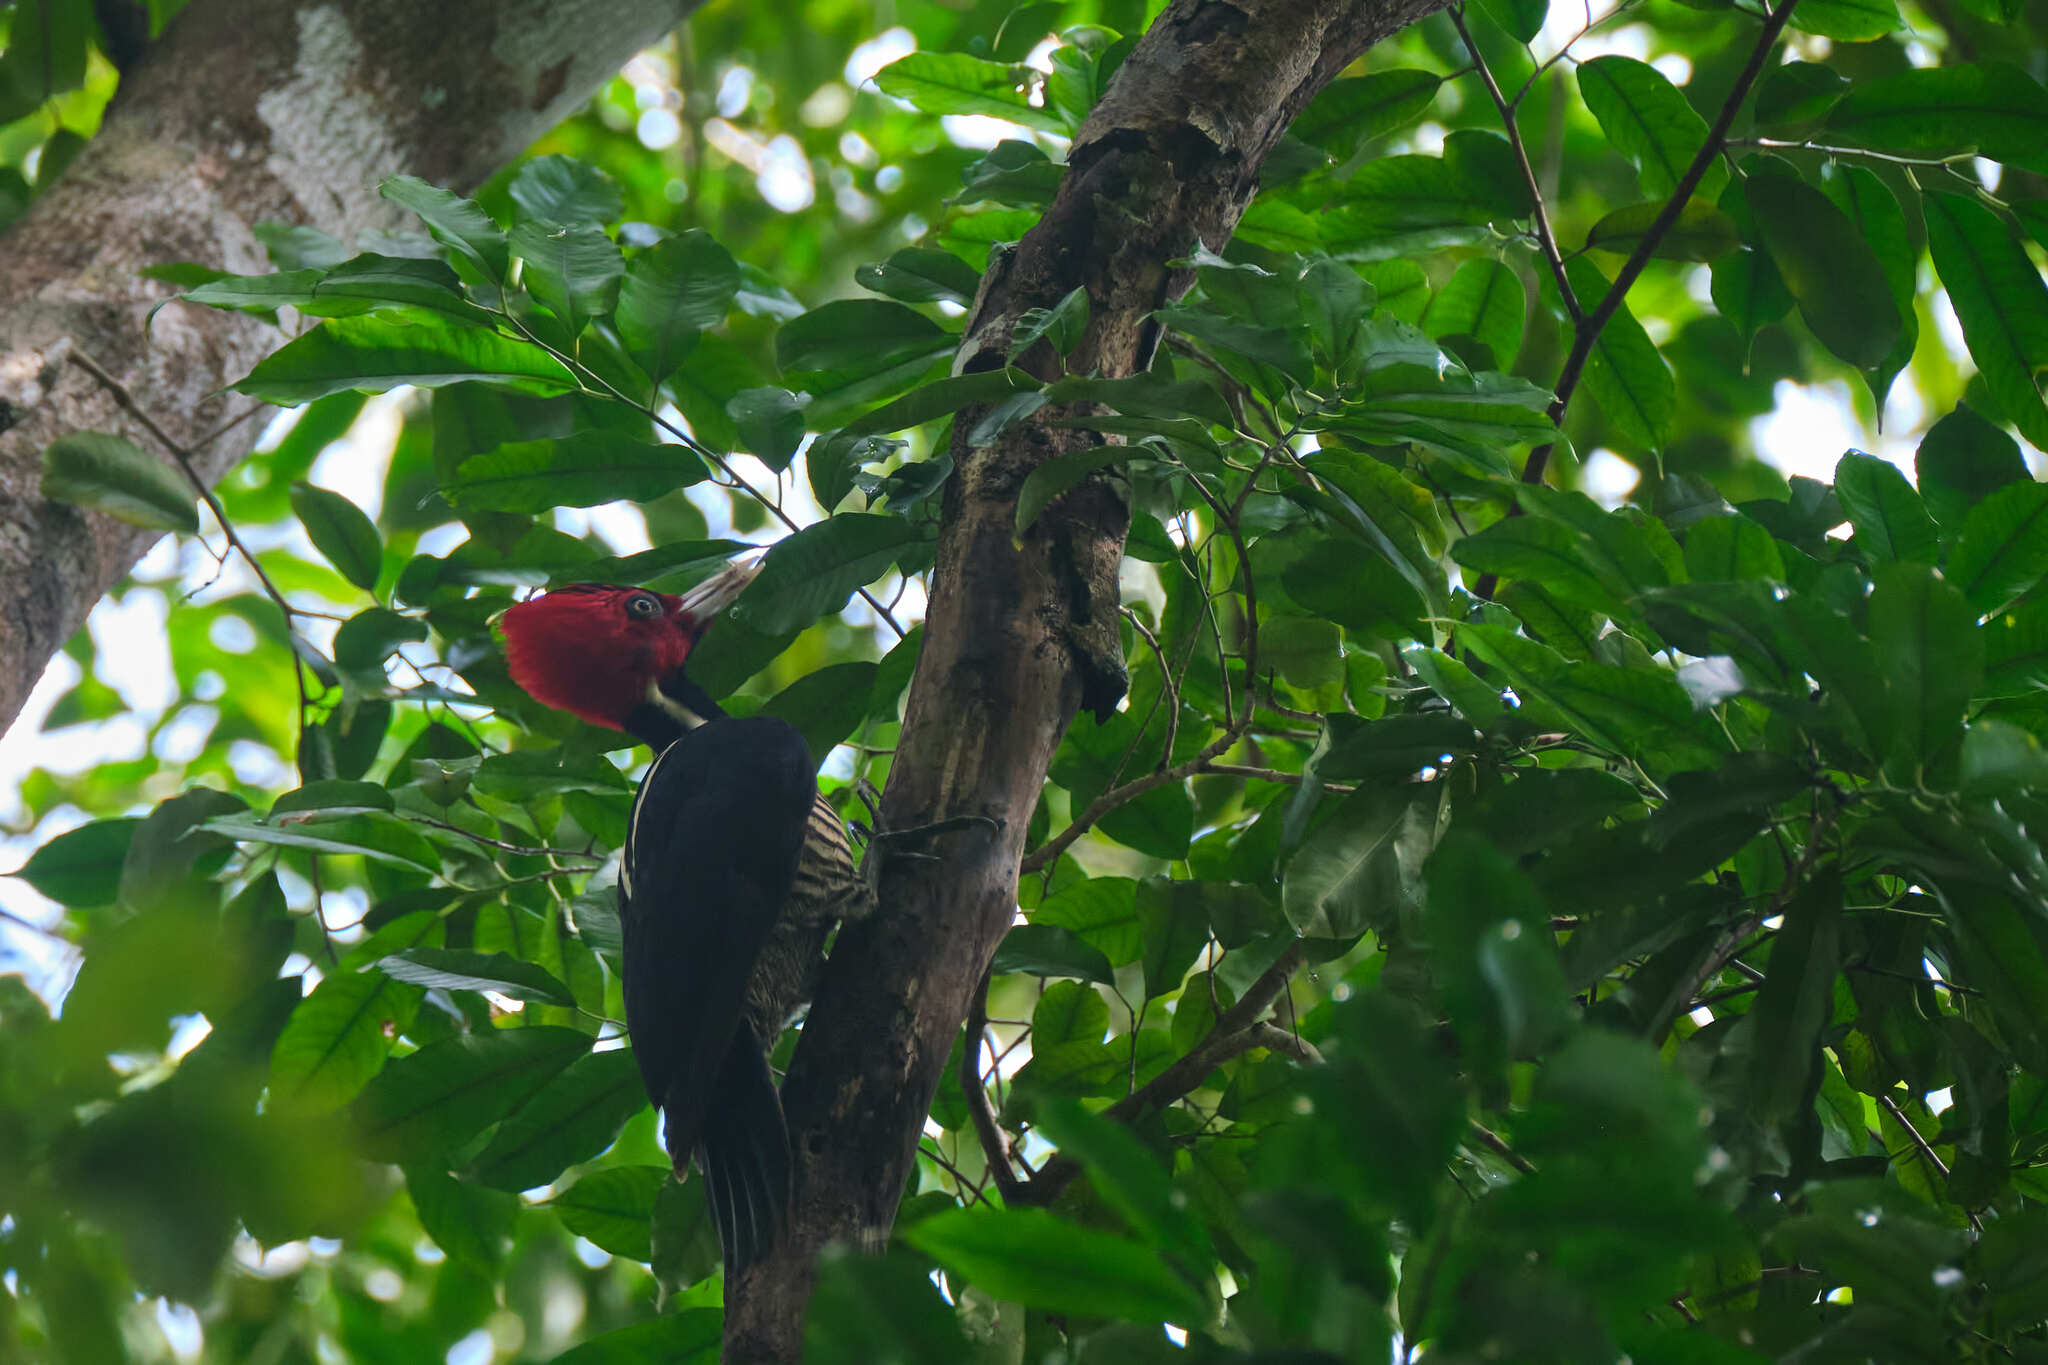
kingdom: Animalia
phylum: Chordata
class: Aves
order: Piciformes
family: Picidae
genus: Campephilus
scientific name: Campephilus guatemalensis
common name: Pale-billed woodpecker
